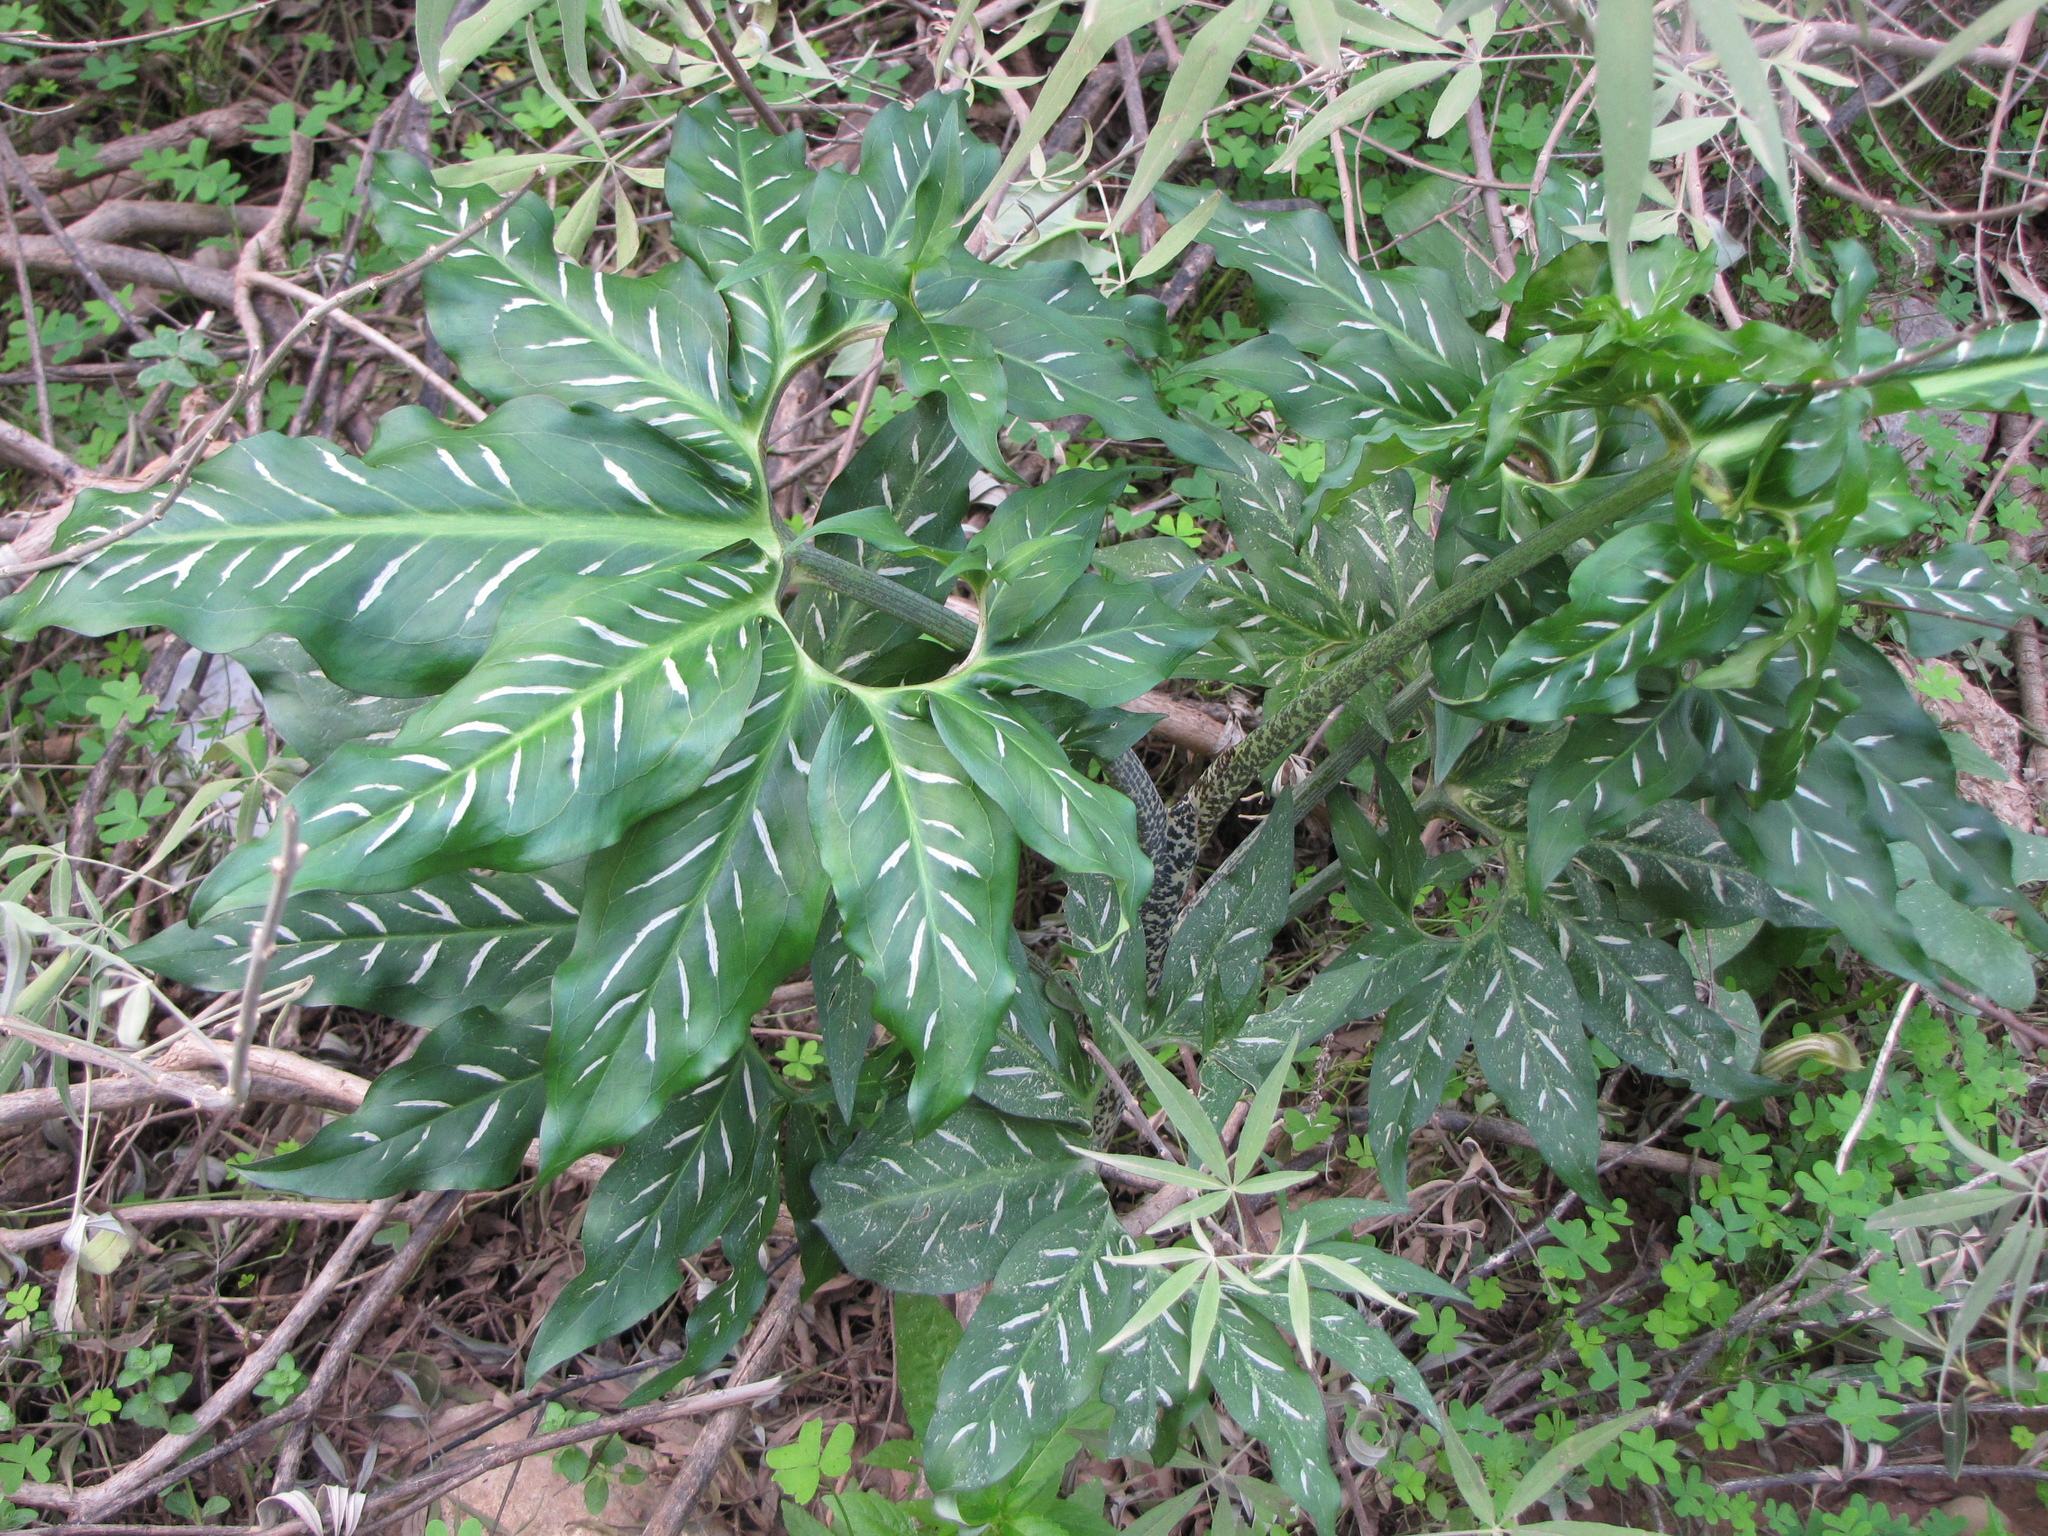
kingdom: Plantae
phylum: Tracheophyta
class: Liliopsida
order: Alismatales
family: Araceae
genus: Dracunculus
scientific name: Dracunculus vulgaris
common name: Dragon arum
